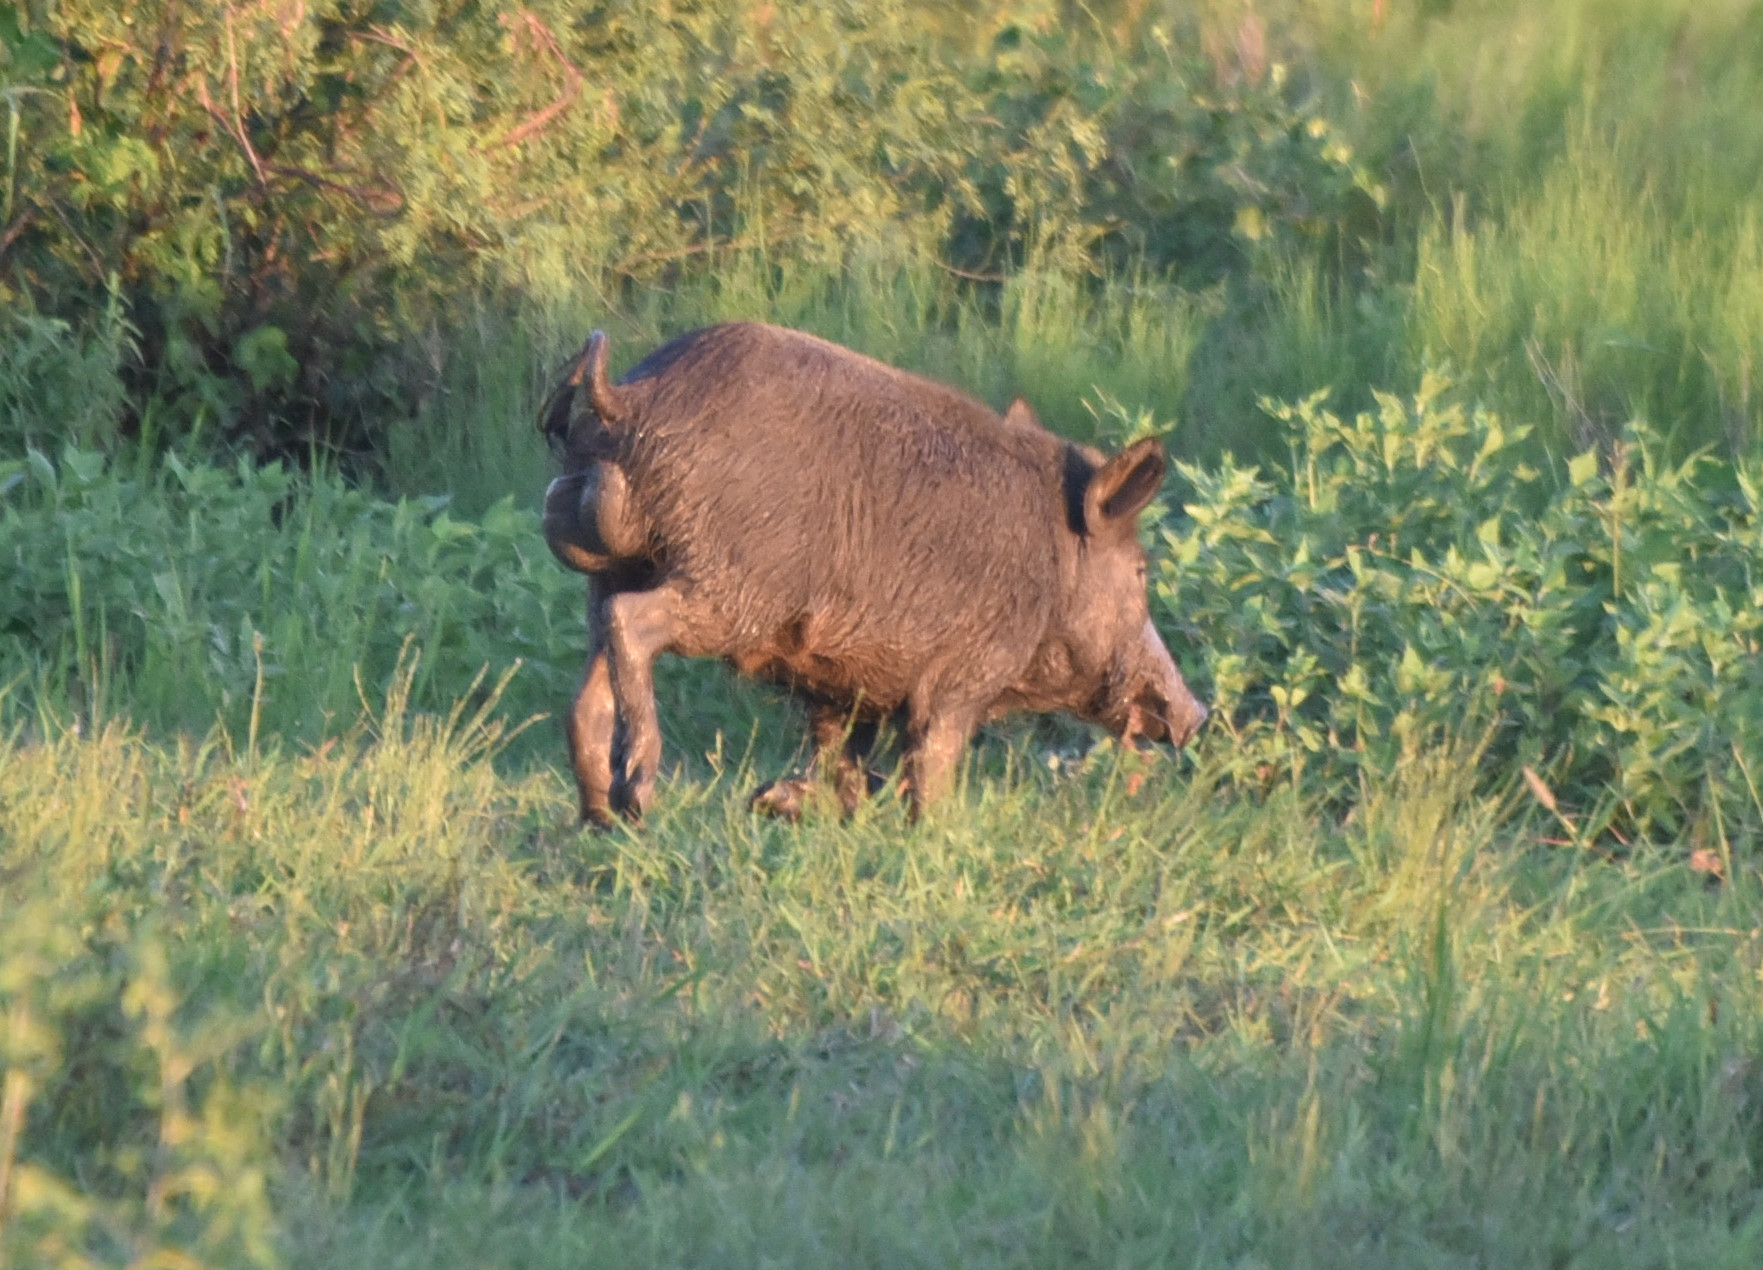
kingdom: Animalia
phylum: Chordata
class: Mammalia
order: Artiodactyla
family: Suidae
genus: Sus
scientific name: Sus scrofa
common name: Wild boar
